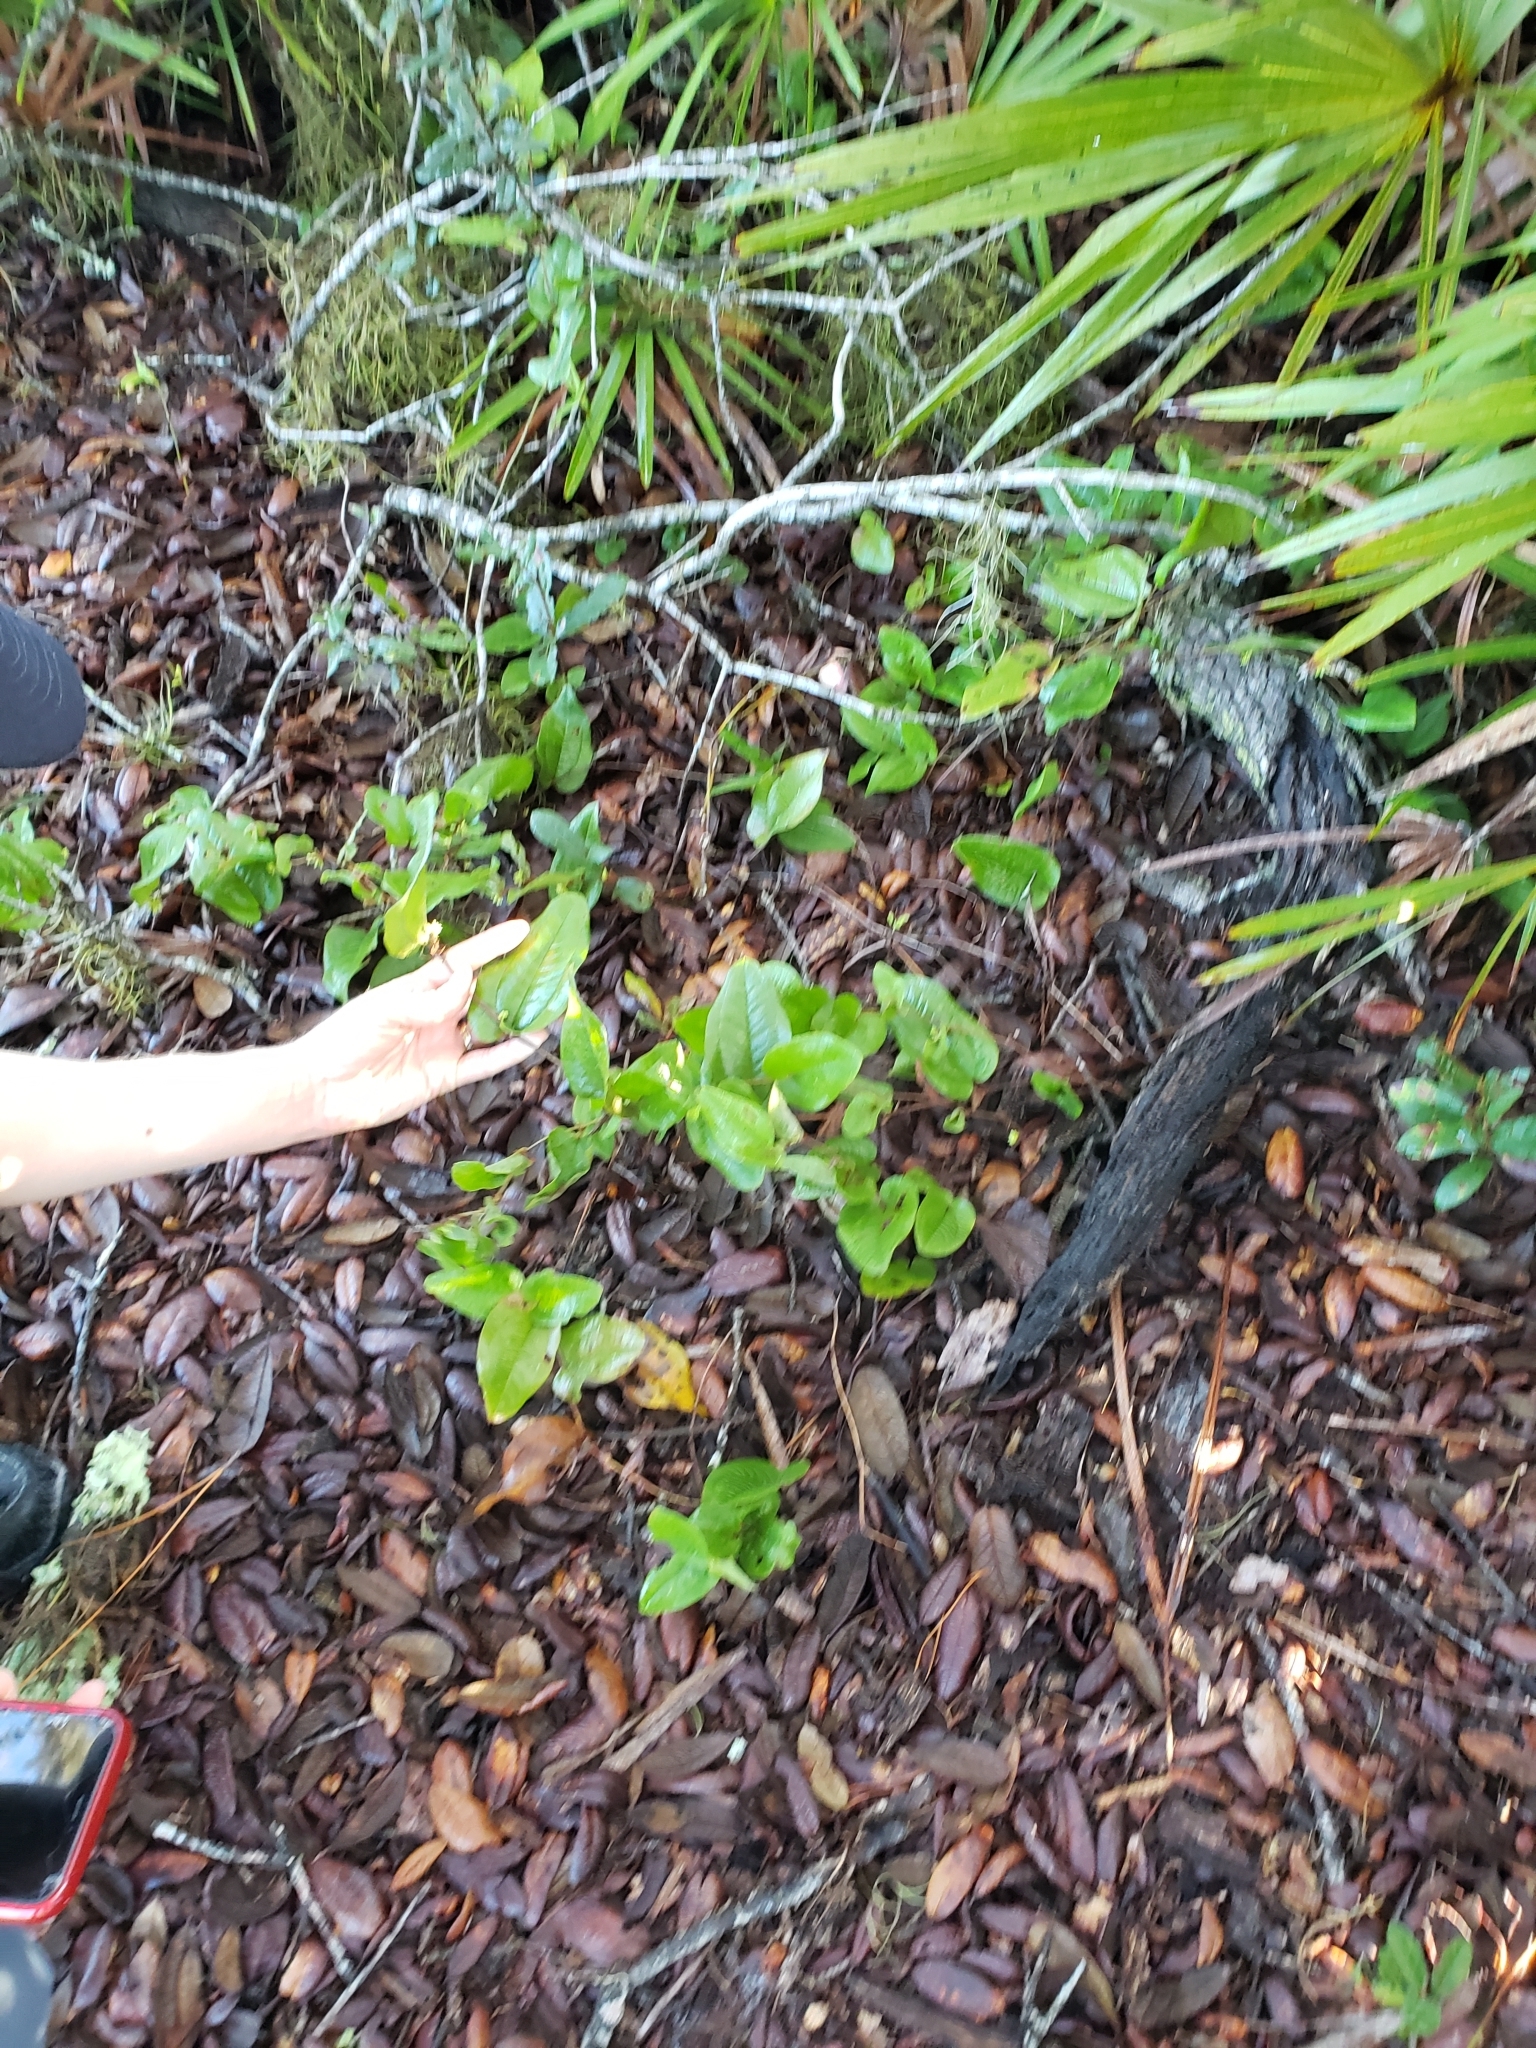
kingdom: Plantae
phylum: Tracheophyta
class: Liliopsida
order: Liliales
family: Smilacaceae
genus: Smilax
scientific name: Smilax pumila
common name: Sarsaparilla-vine
